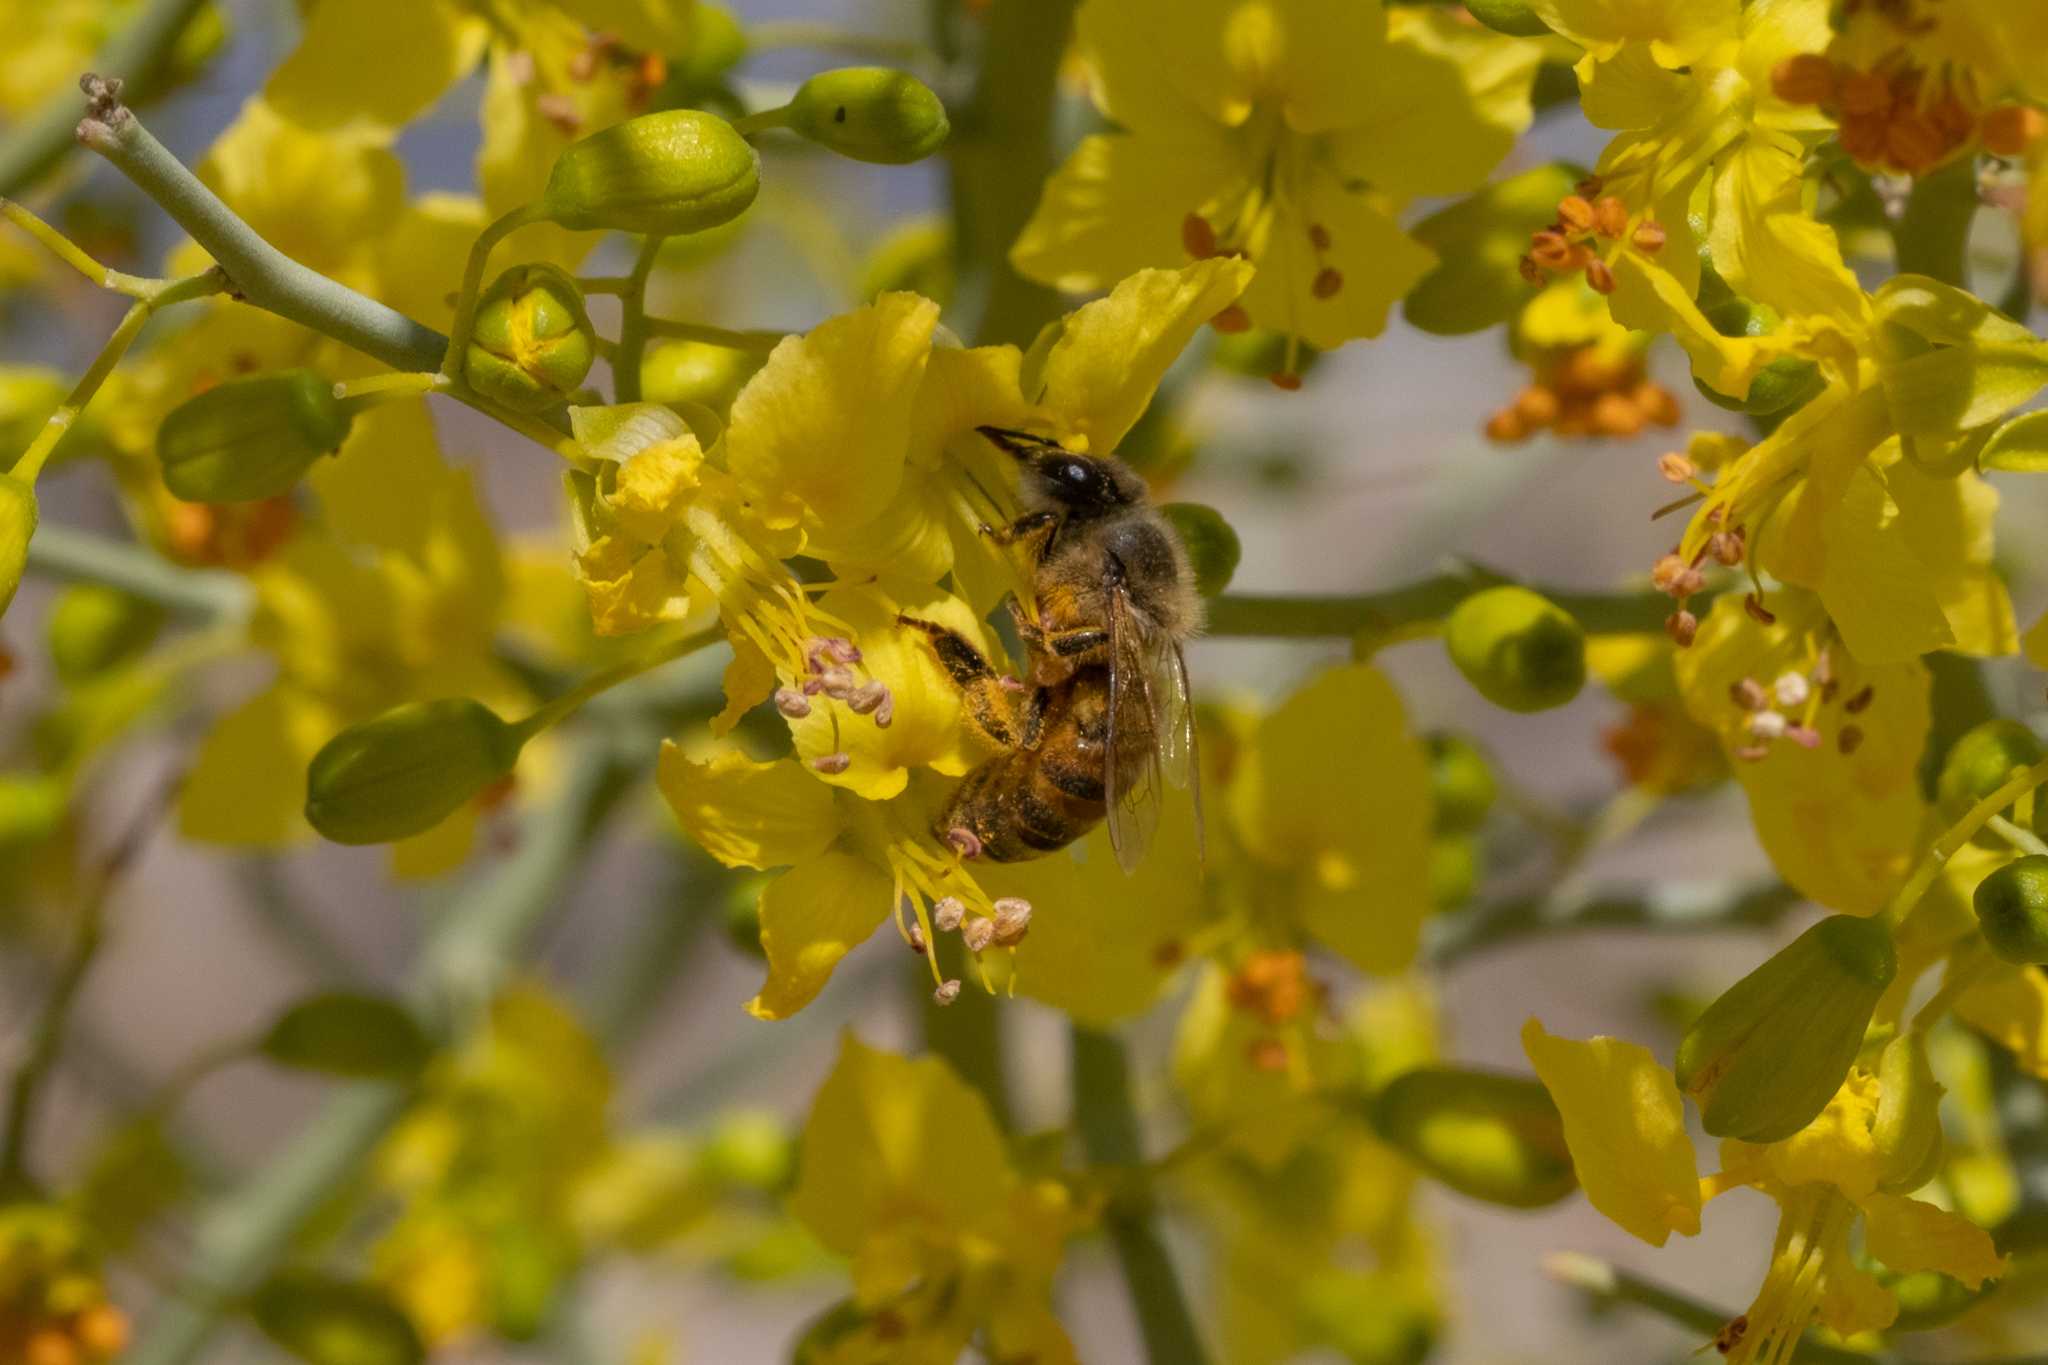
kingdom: Animalia
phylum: Arthropoda
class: Insecta
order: Hymenoptera
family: Apidae
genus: Apis
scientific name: Apis mellifera
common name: Honey bee
